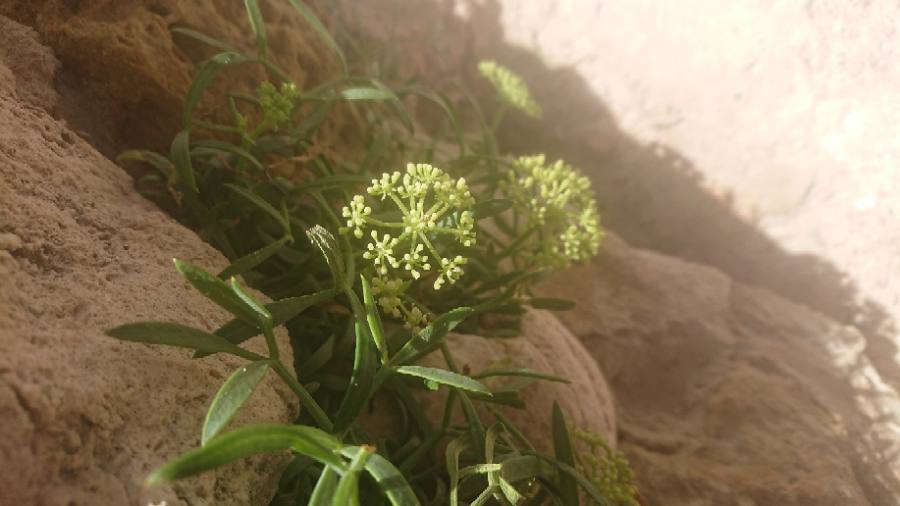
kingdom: Plantae
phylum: Tracheophyta
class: Magnoliopsida
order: Apiales
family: Apiaceae
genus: Crithmum
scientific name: Crithmum maritimum
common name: Rock samphire
